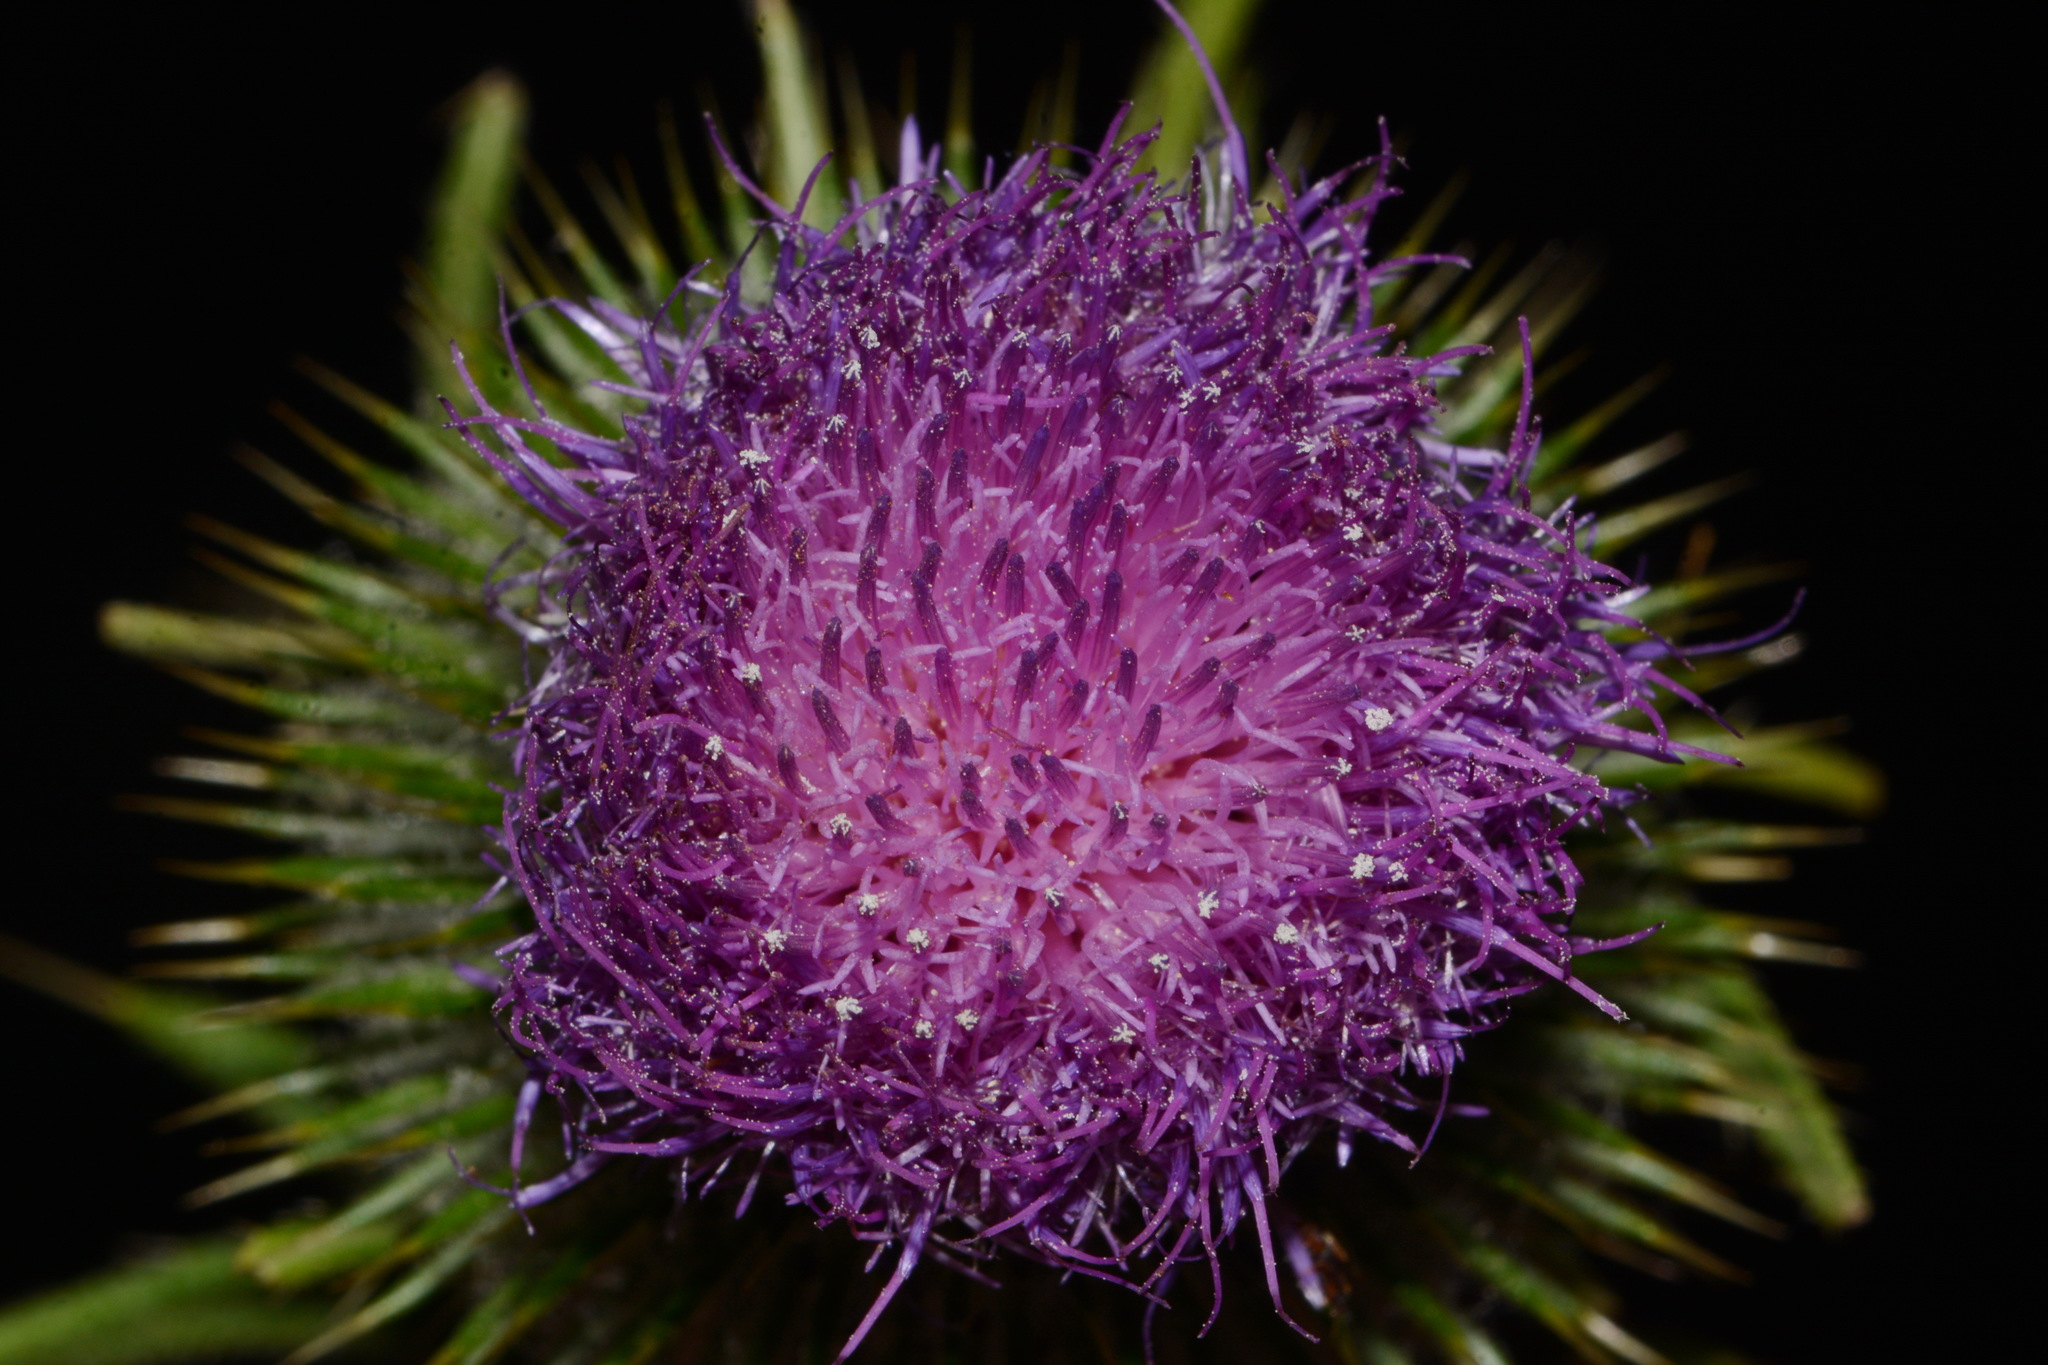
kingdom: Plantae
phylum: Tracheophyta
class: Magnoliopsida
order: Asterales
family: Asteraceae
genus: Cirsium
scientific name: Cirsium vulgare
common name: Bull thistle
